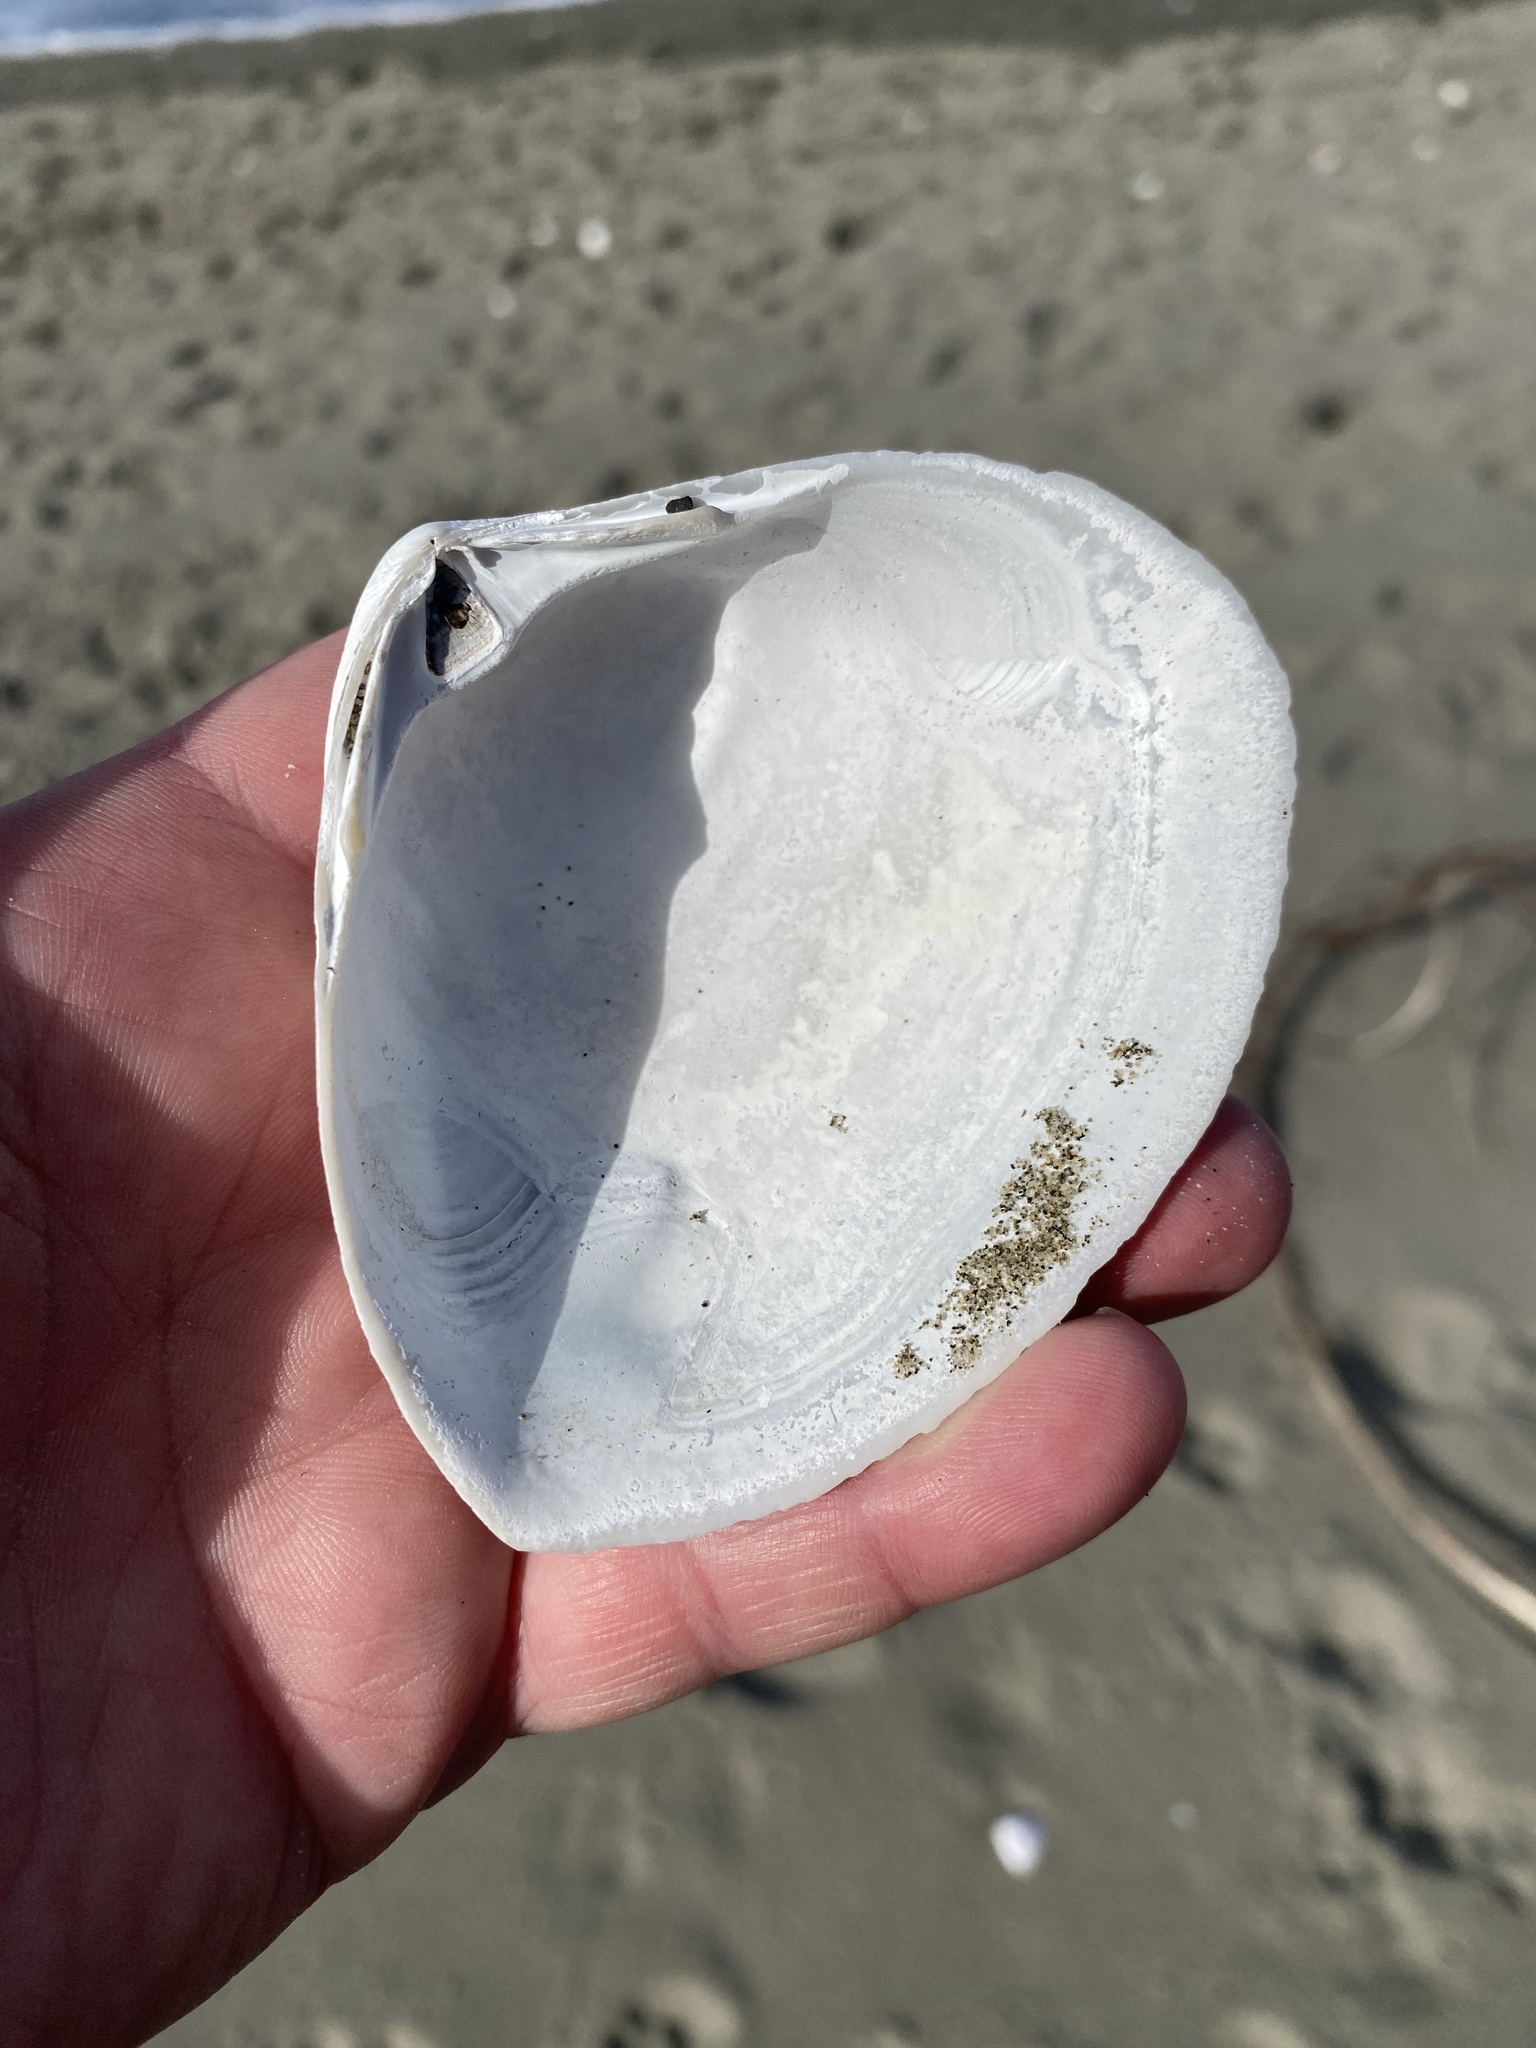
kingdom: Animalia
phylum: Mollusca
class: Bivalvia
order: Venerida
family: Mactridae
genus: Spisula
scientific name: Spisula murchisoni
